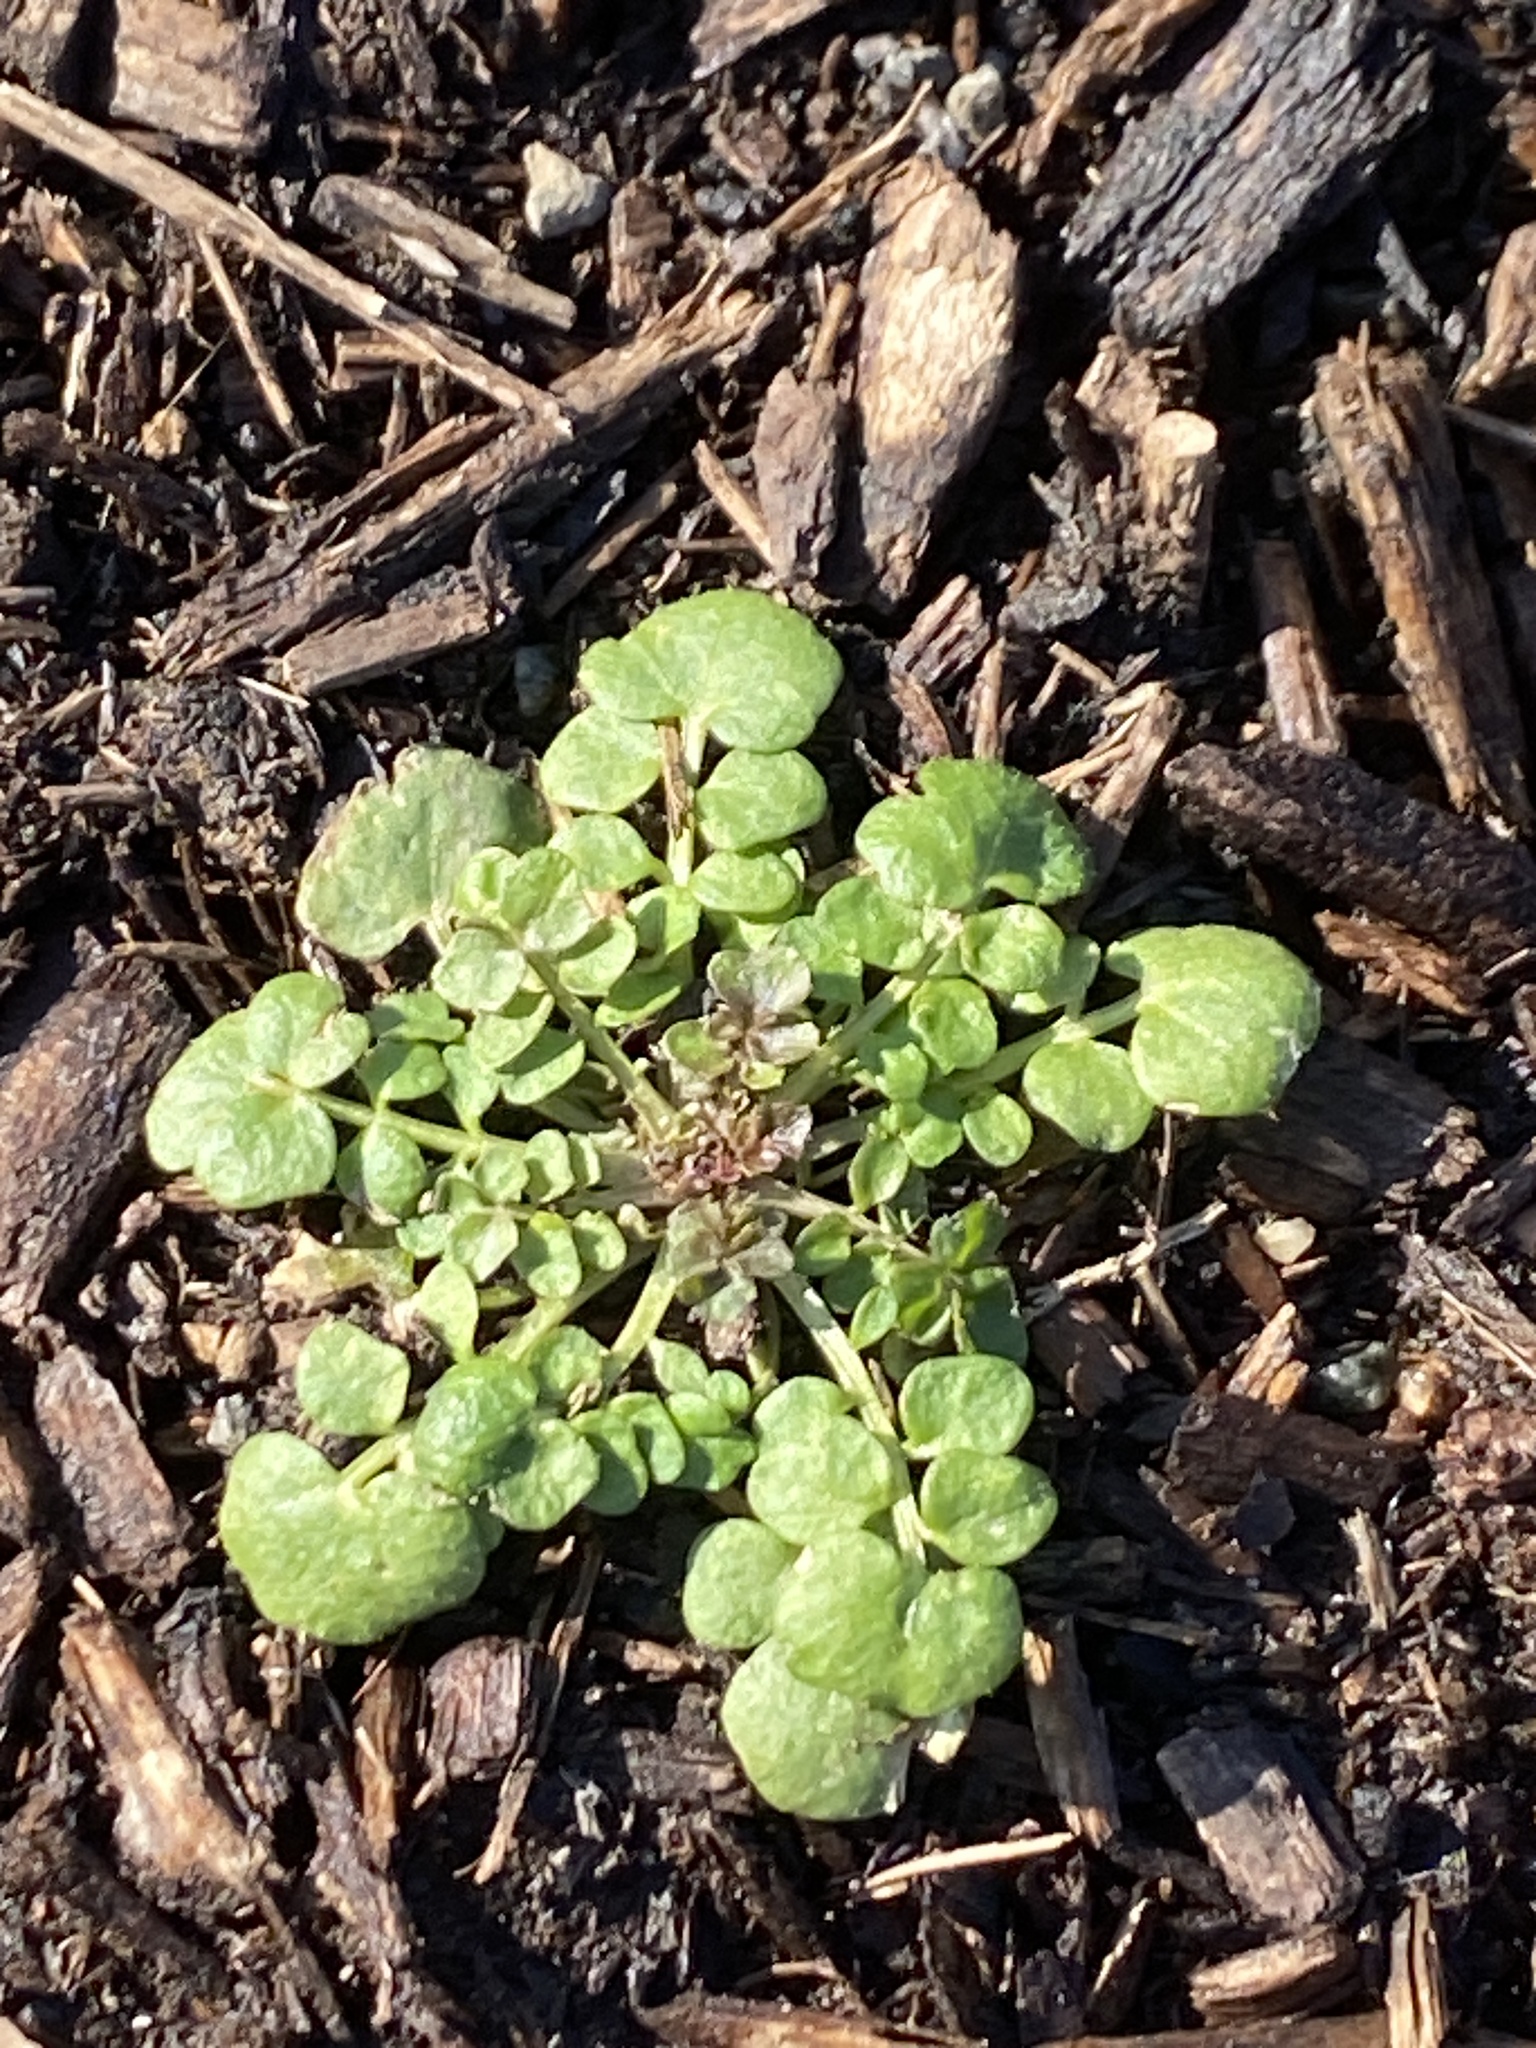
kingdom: Plantae
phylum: Tracheophyta
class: Magnoliopsida
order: Brassicales
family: Brassicaceae
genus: Cardamine
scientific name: Cardamine hirsuta
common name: Hairy bittercress
